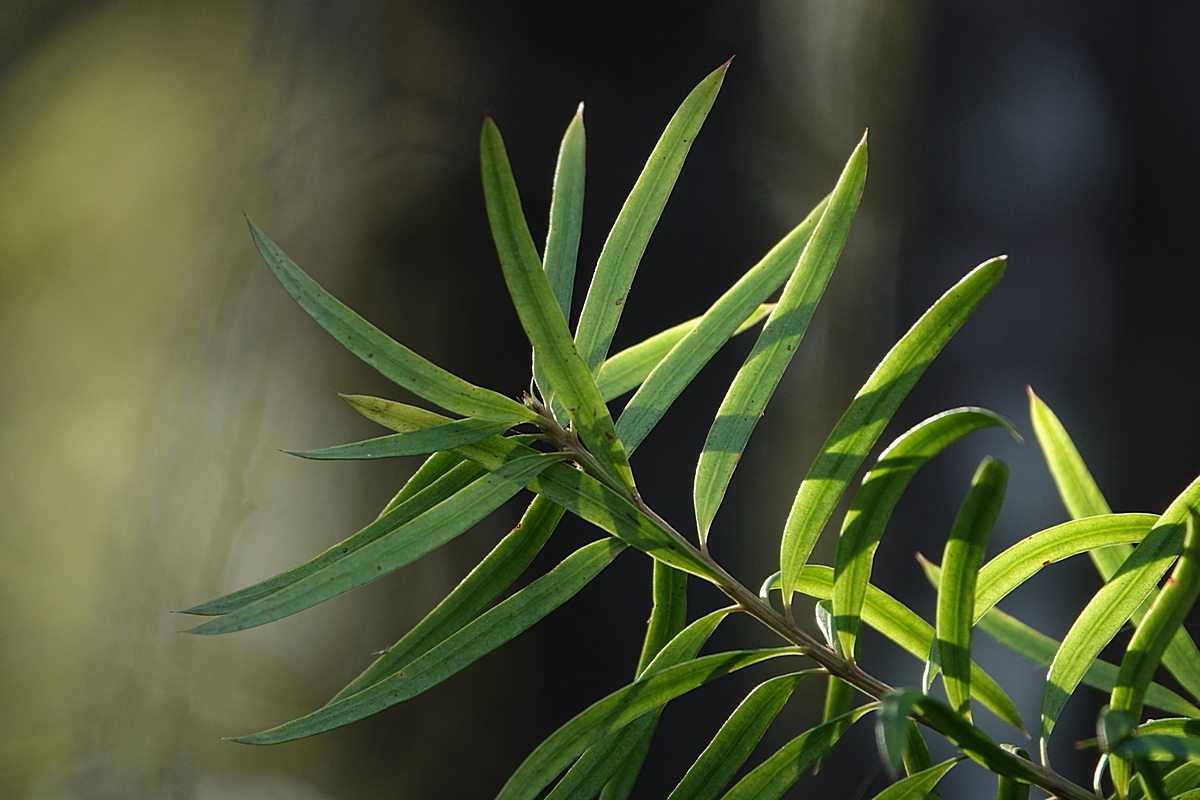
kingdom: Plantae
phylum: Tracheophyta
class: Pinopsida
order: Pinales
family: Podocarpaceae
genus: Podocarpus
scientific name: Podocarpus spinulosus
